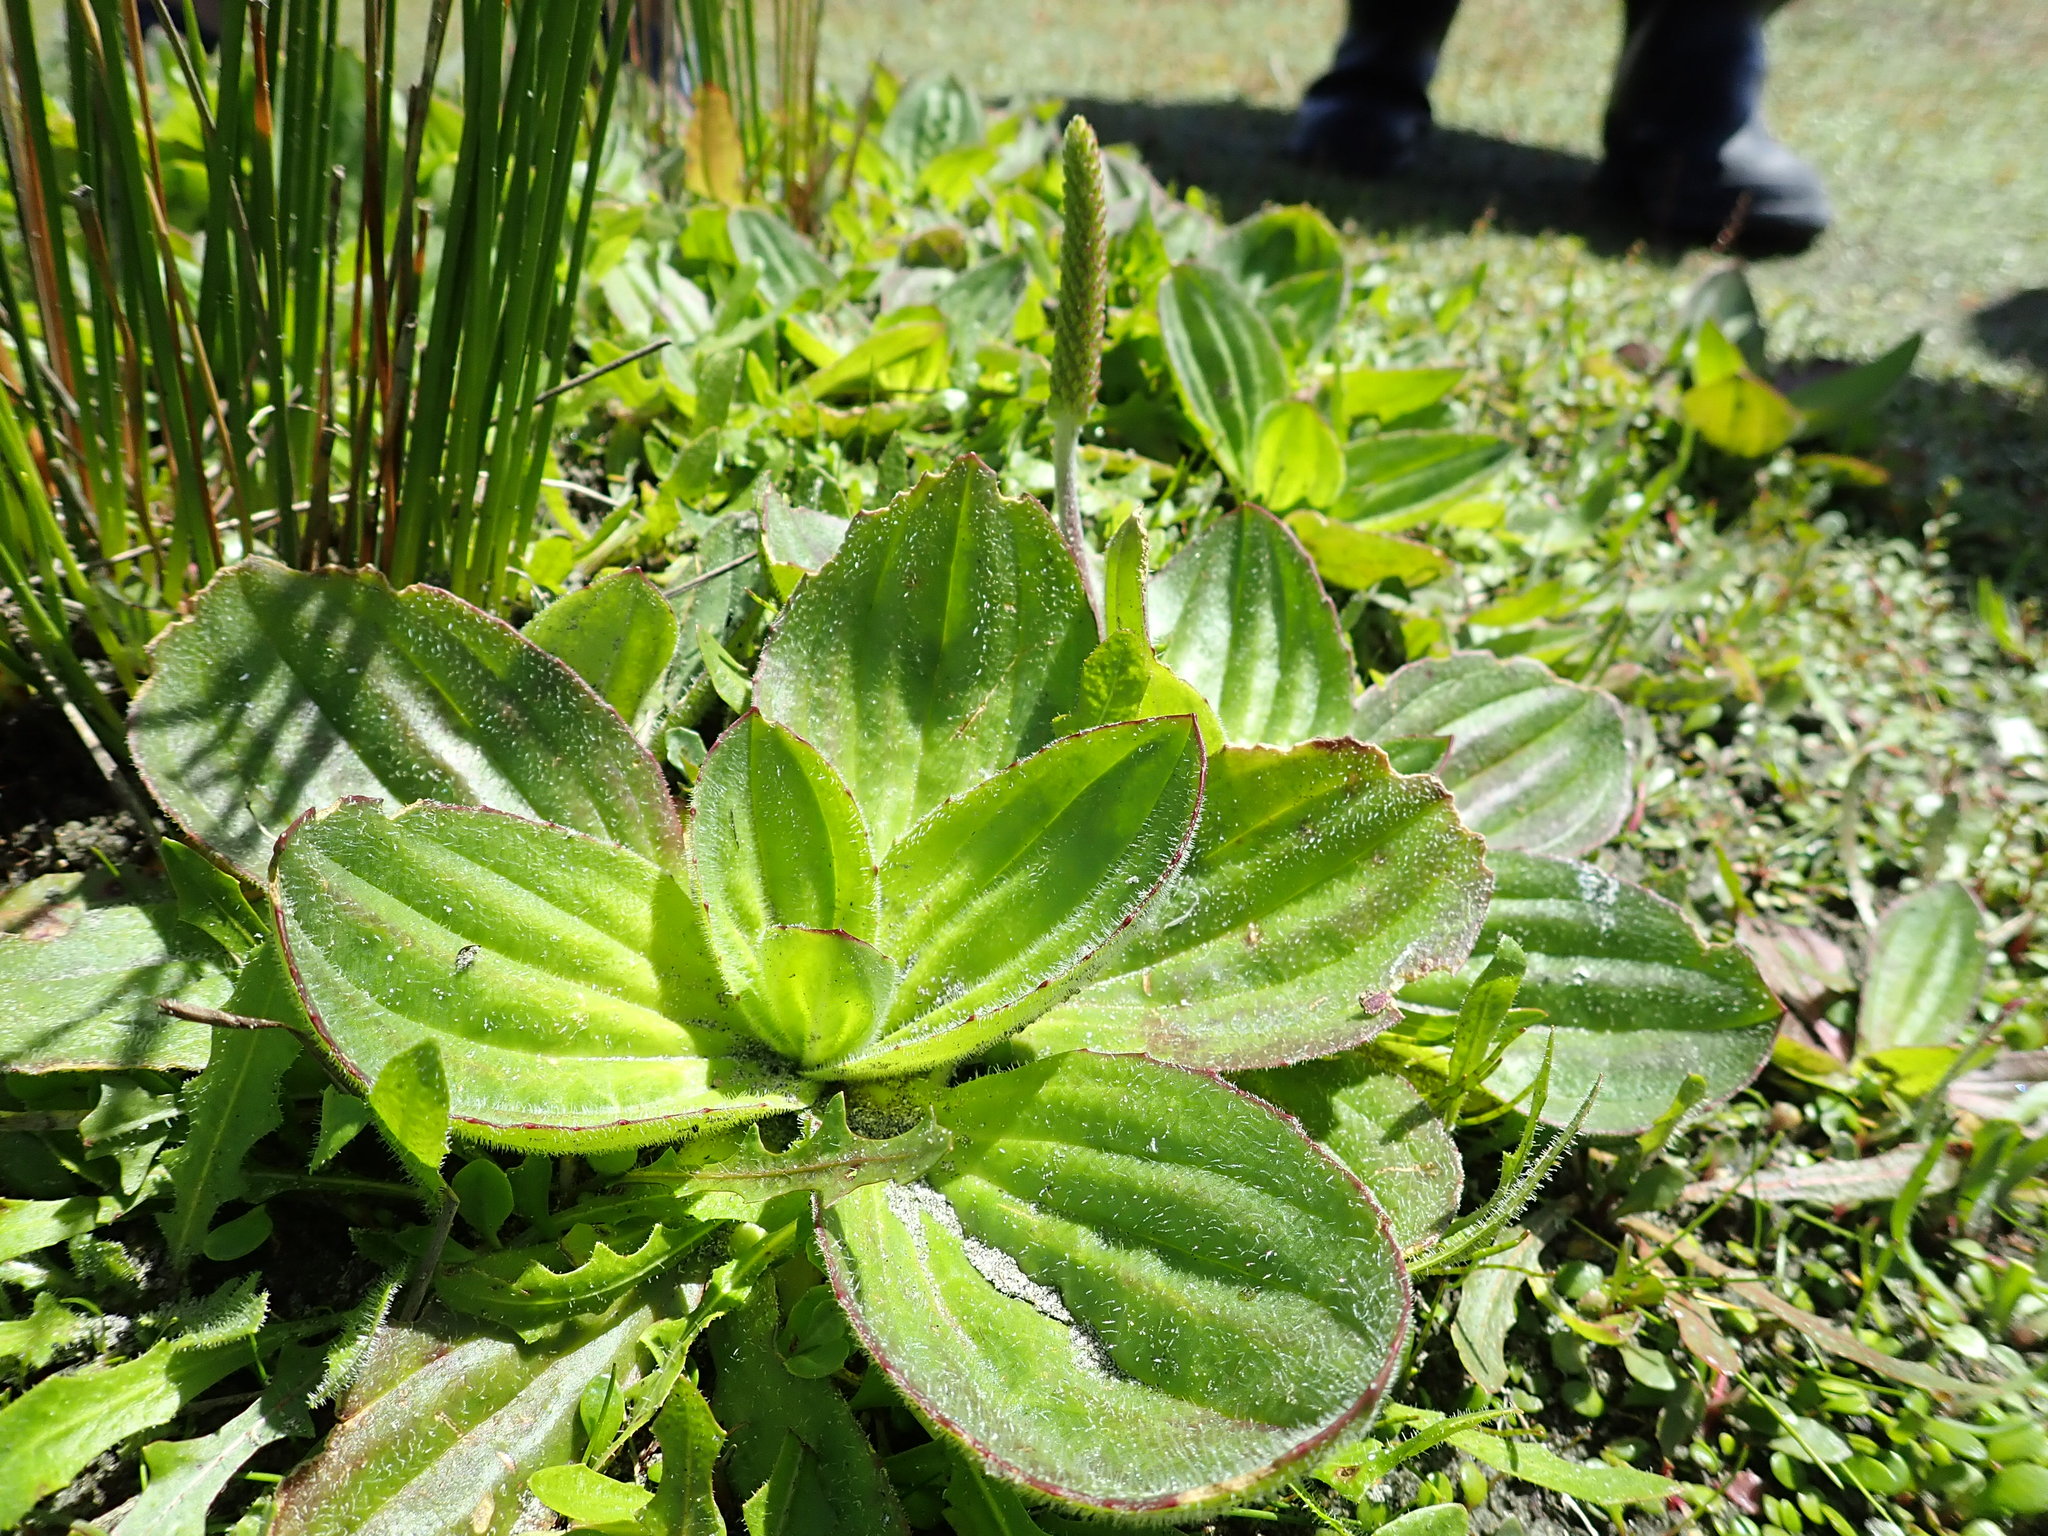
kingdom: Plantae
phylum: Tracheophyta
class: Magnoliopsida
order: Lamiales
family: Plantaginaceae
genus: Plantago
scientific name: Plantago australis
